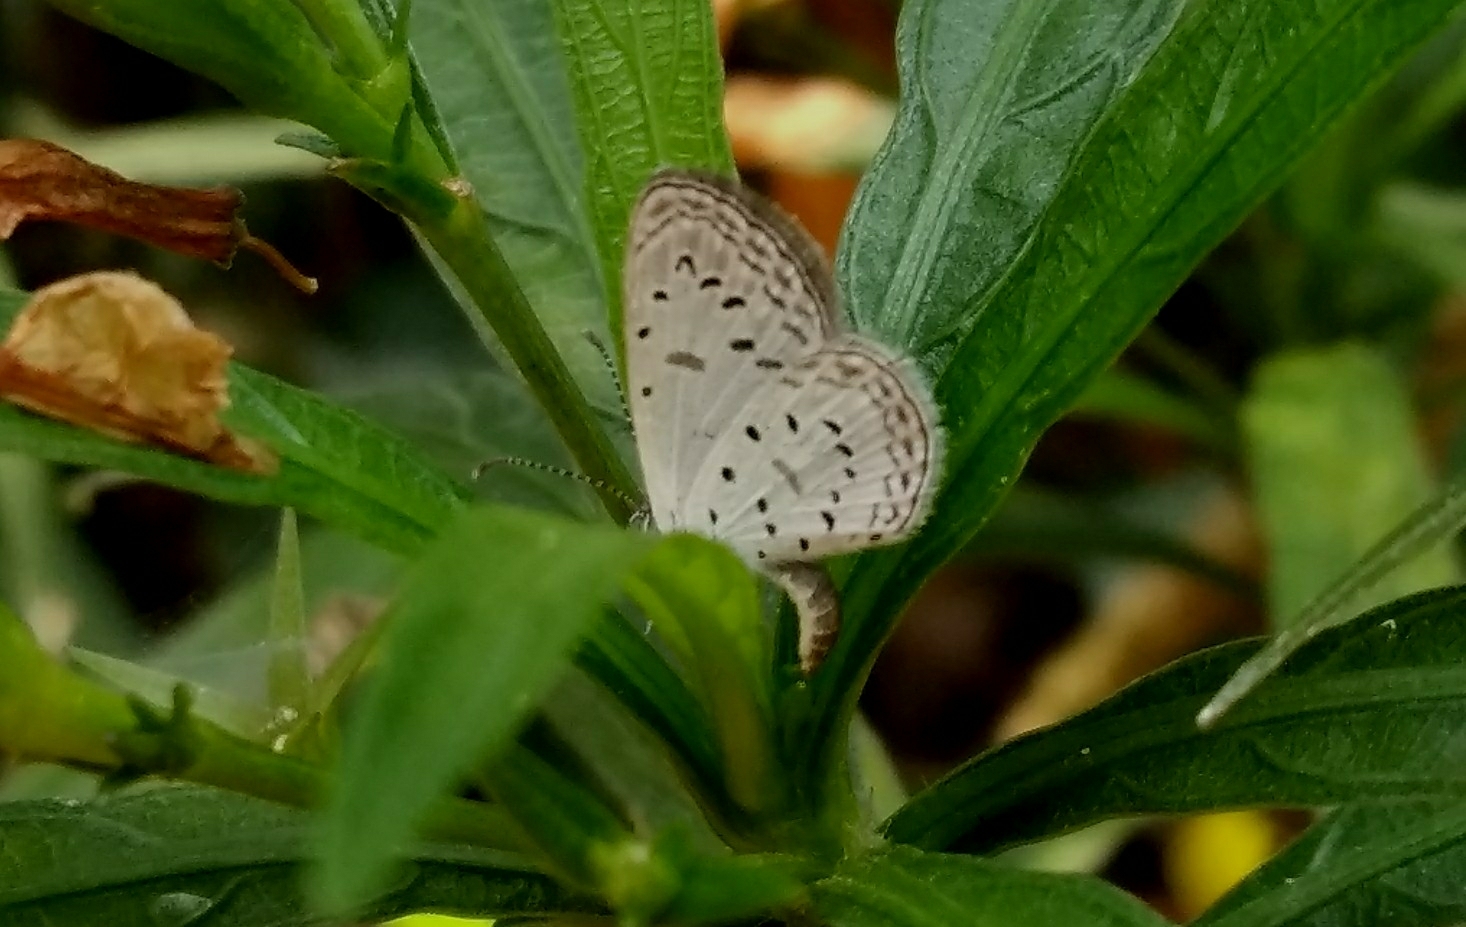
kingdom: Animalia
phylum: Arthropoda
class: Insecta
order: Lepidoptera
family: Lycaenidae
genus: Zizula
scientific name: Zizula hylax
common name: Gaika blue
